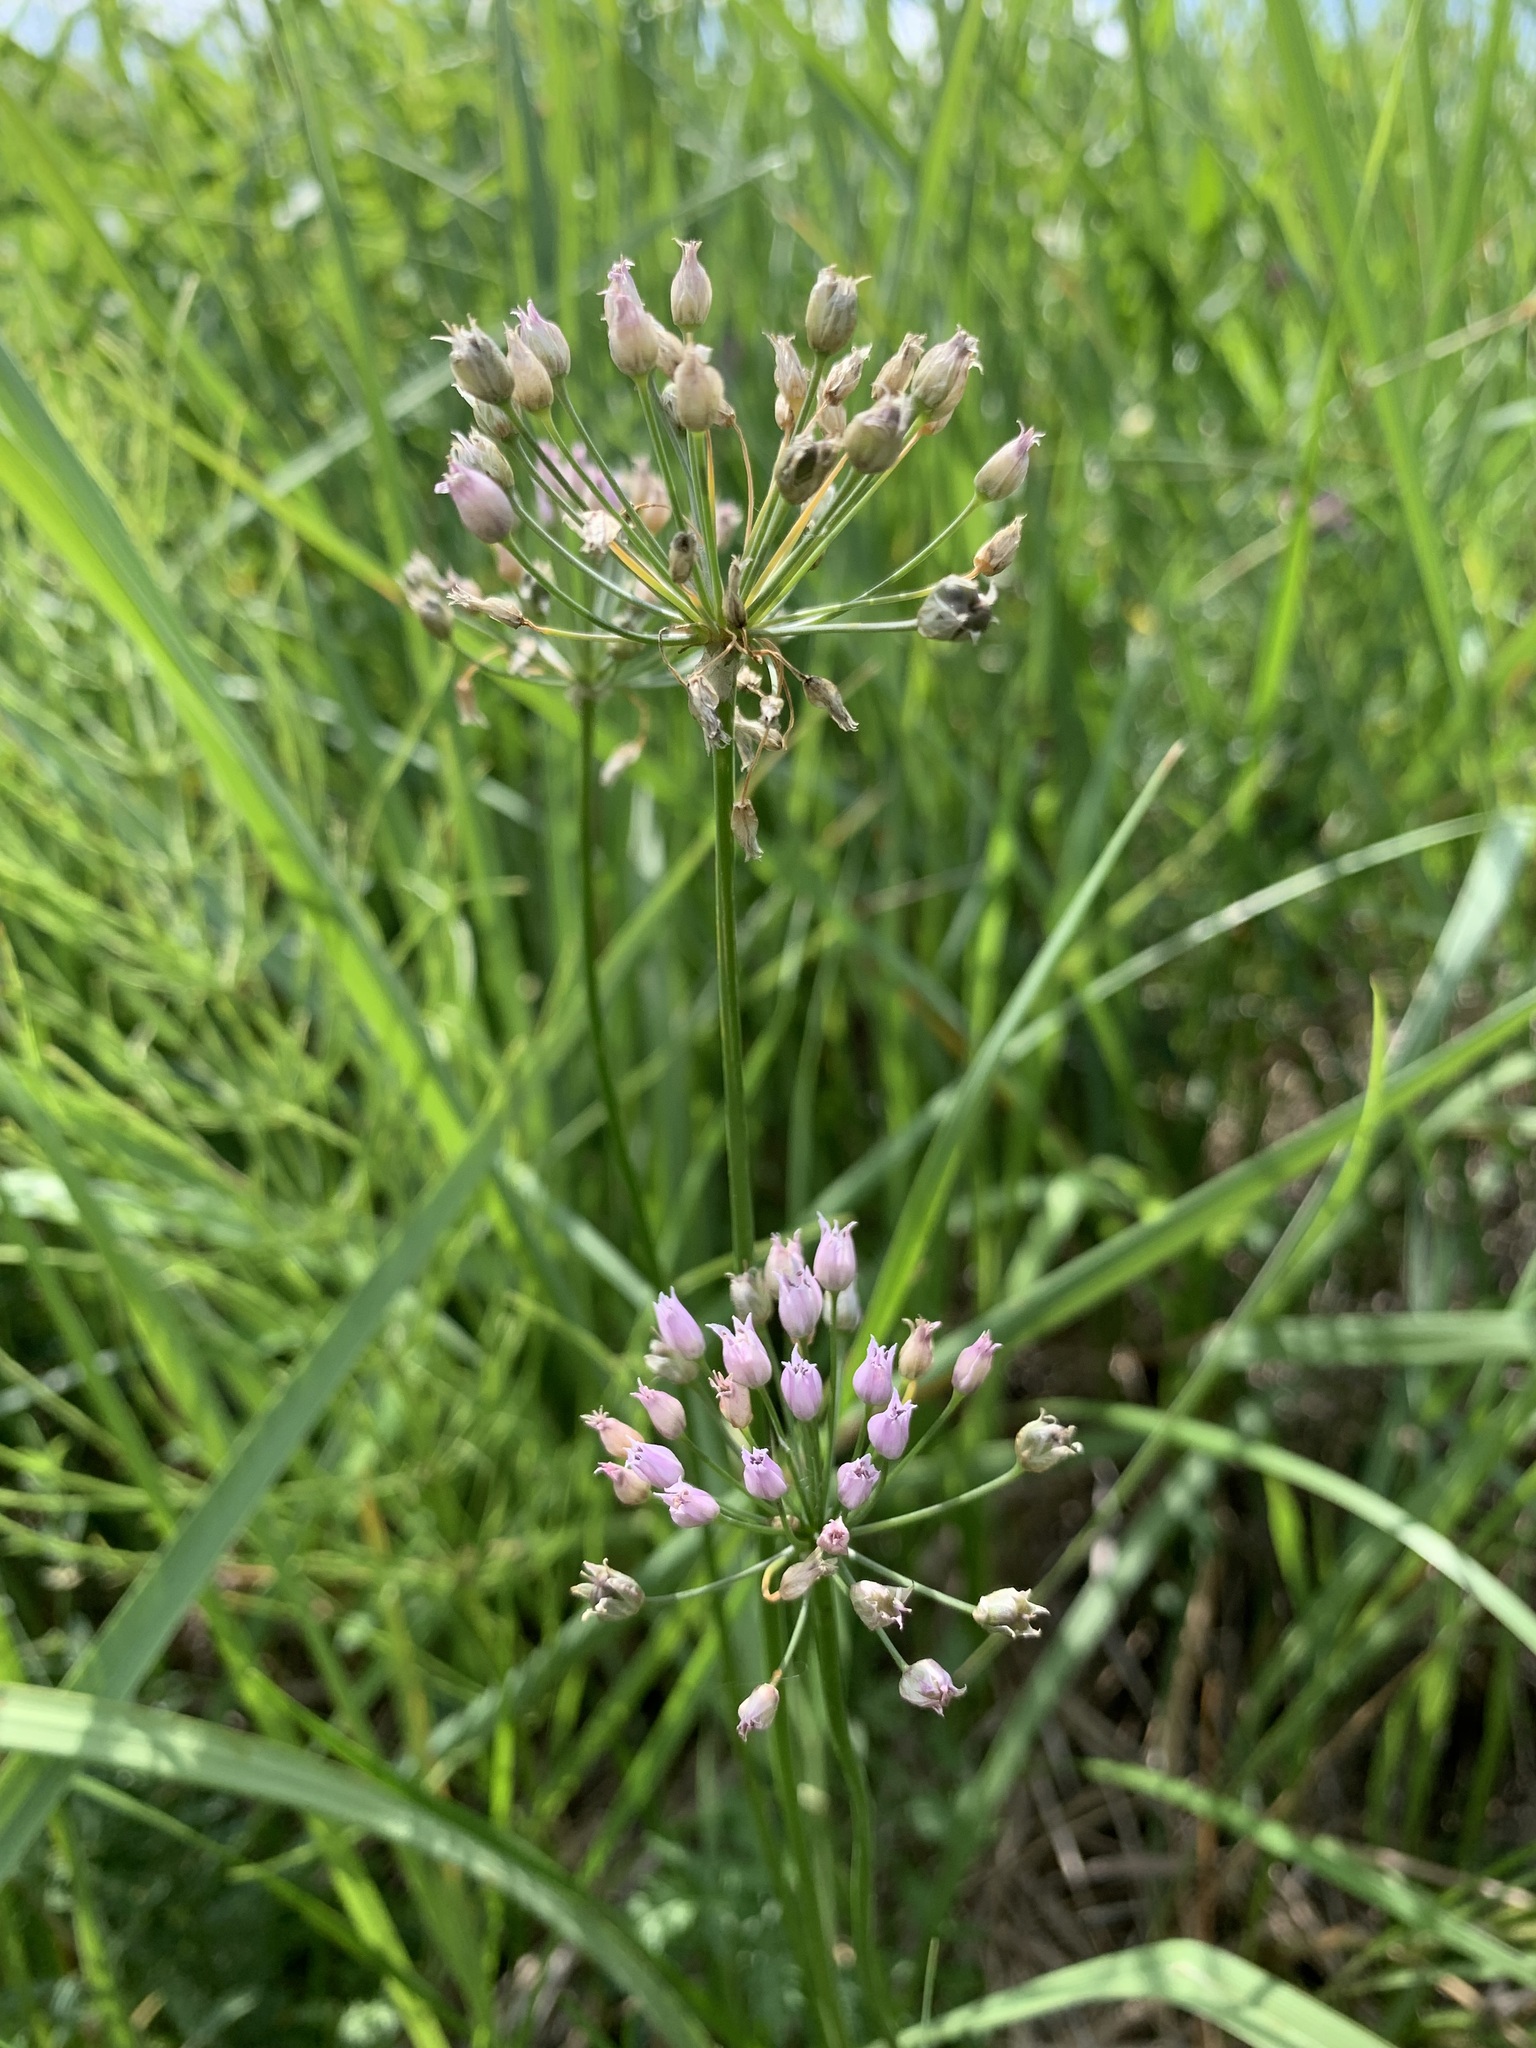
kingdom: Plantae
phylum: Tracheophyta
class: Liliopsida
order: Asparagales
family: Amaryllidaceae
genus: Allium
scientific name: Allium angulosum
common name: Mouse garlic
